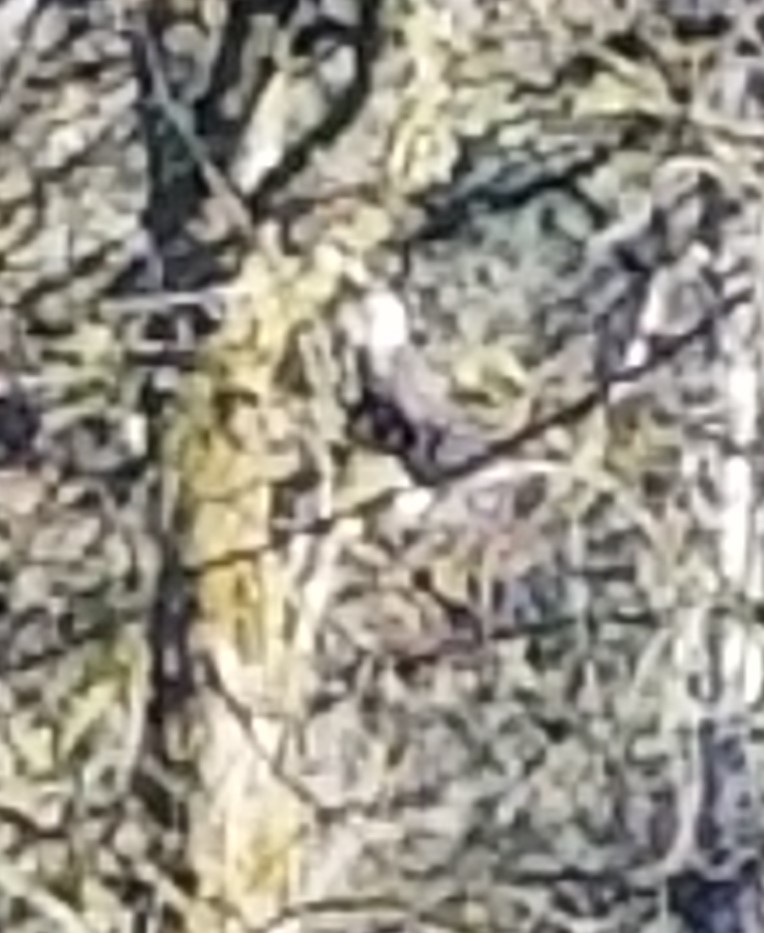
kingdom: Animalia
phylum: Chordata
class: Aves
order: Accipitriformes
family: Accipitridae
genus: Haliaeetus
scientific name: Haliaeetus leucocephalus
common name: Bald eagle
